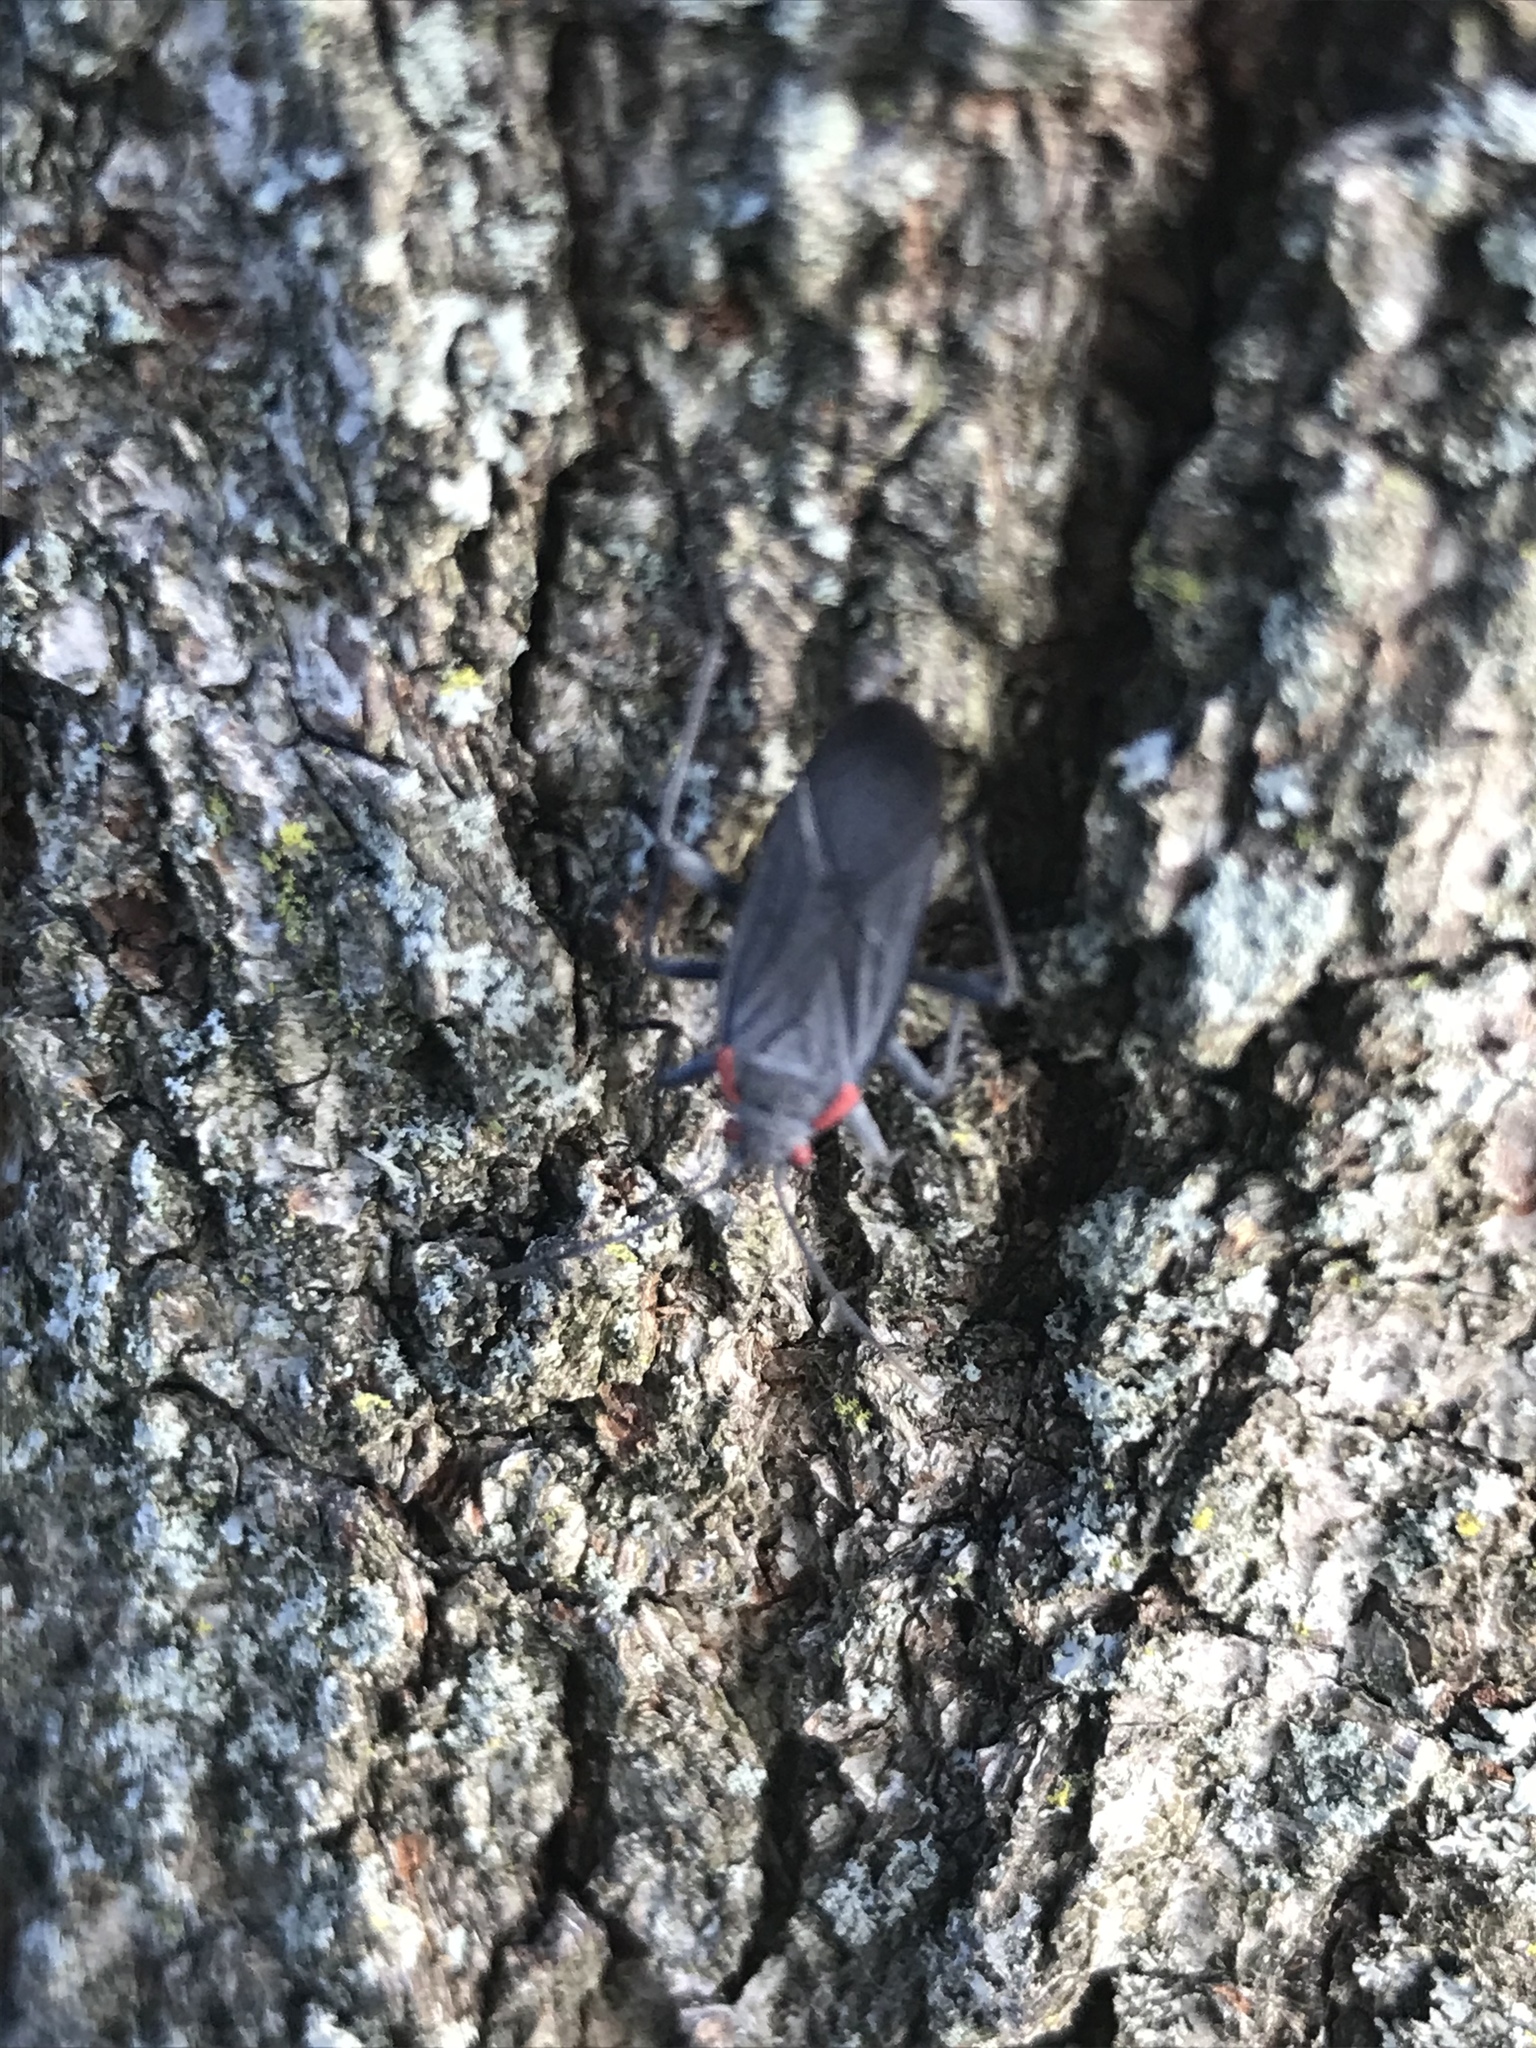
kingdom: Animalia
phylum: Arthropoda
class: Insecta
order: Hemiptera
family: Rhopalidae
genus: Jadera
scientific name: Jadera haematoloma
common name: Red-shouldered bug
